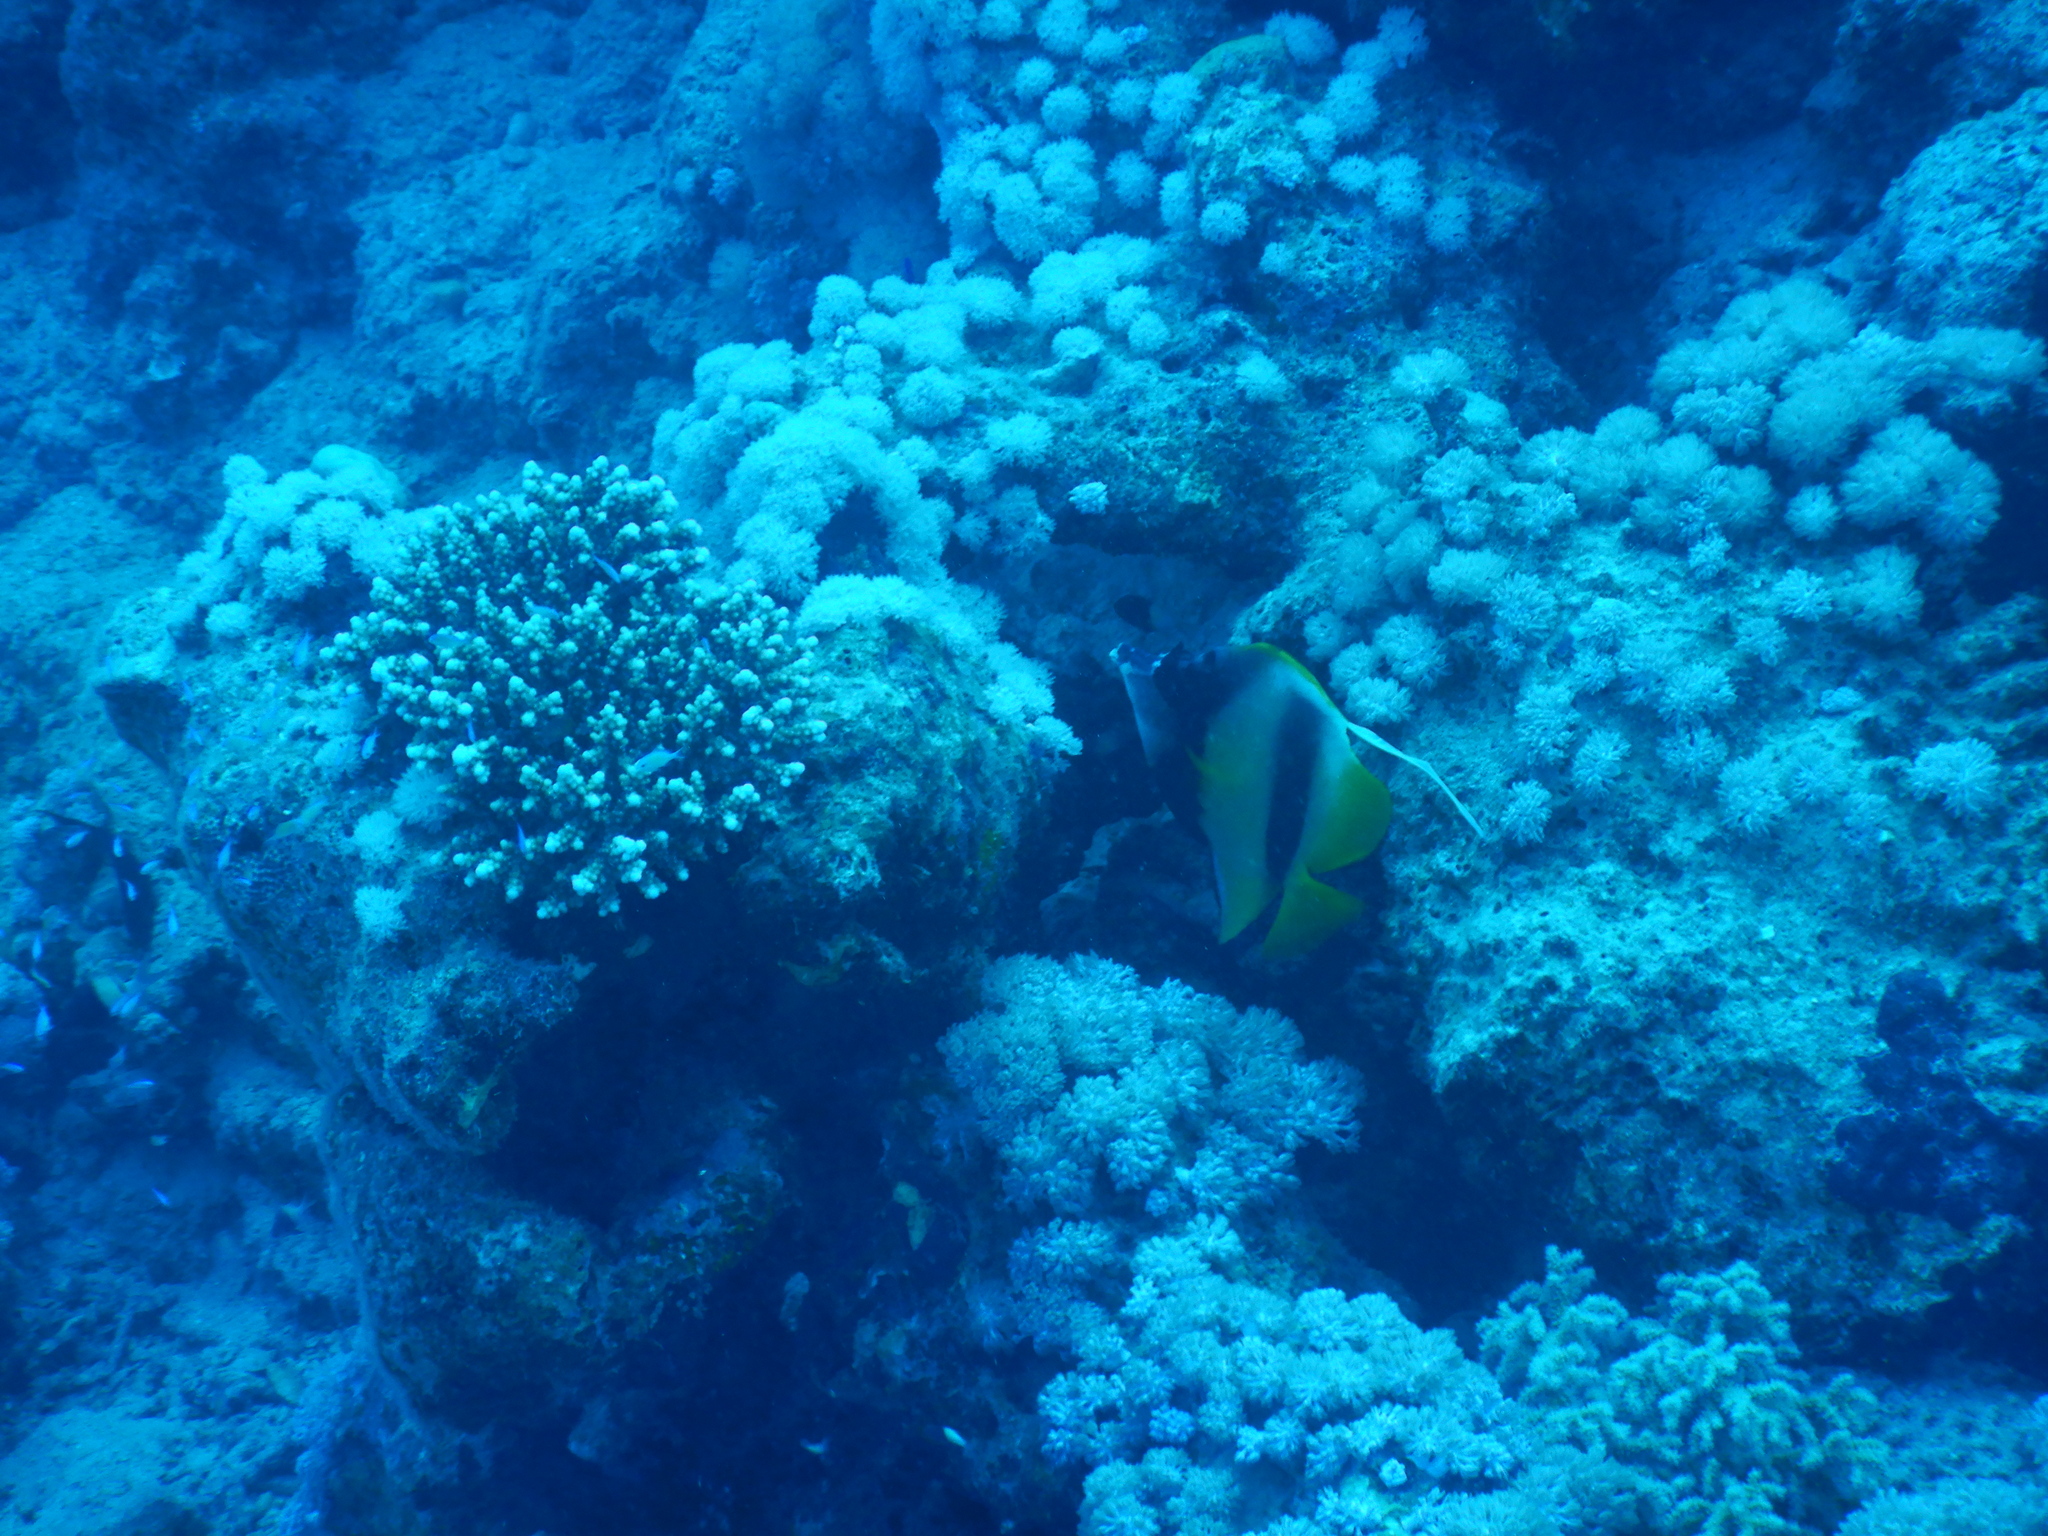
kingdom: Animalia
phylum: Chordata
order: Perciformes
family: Chaetodontidae
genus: Heniochus
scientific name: Heniochus intermedius
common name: Red sea bannerfish
